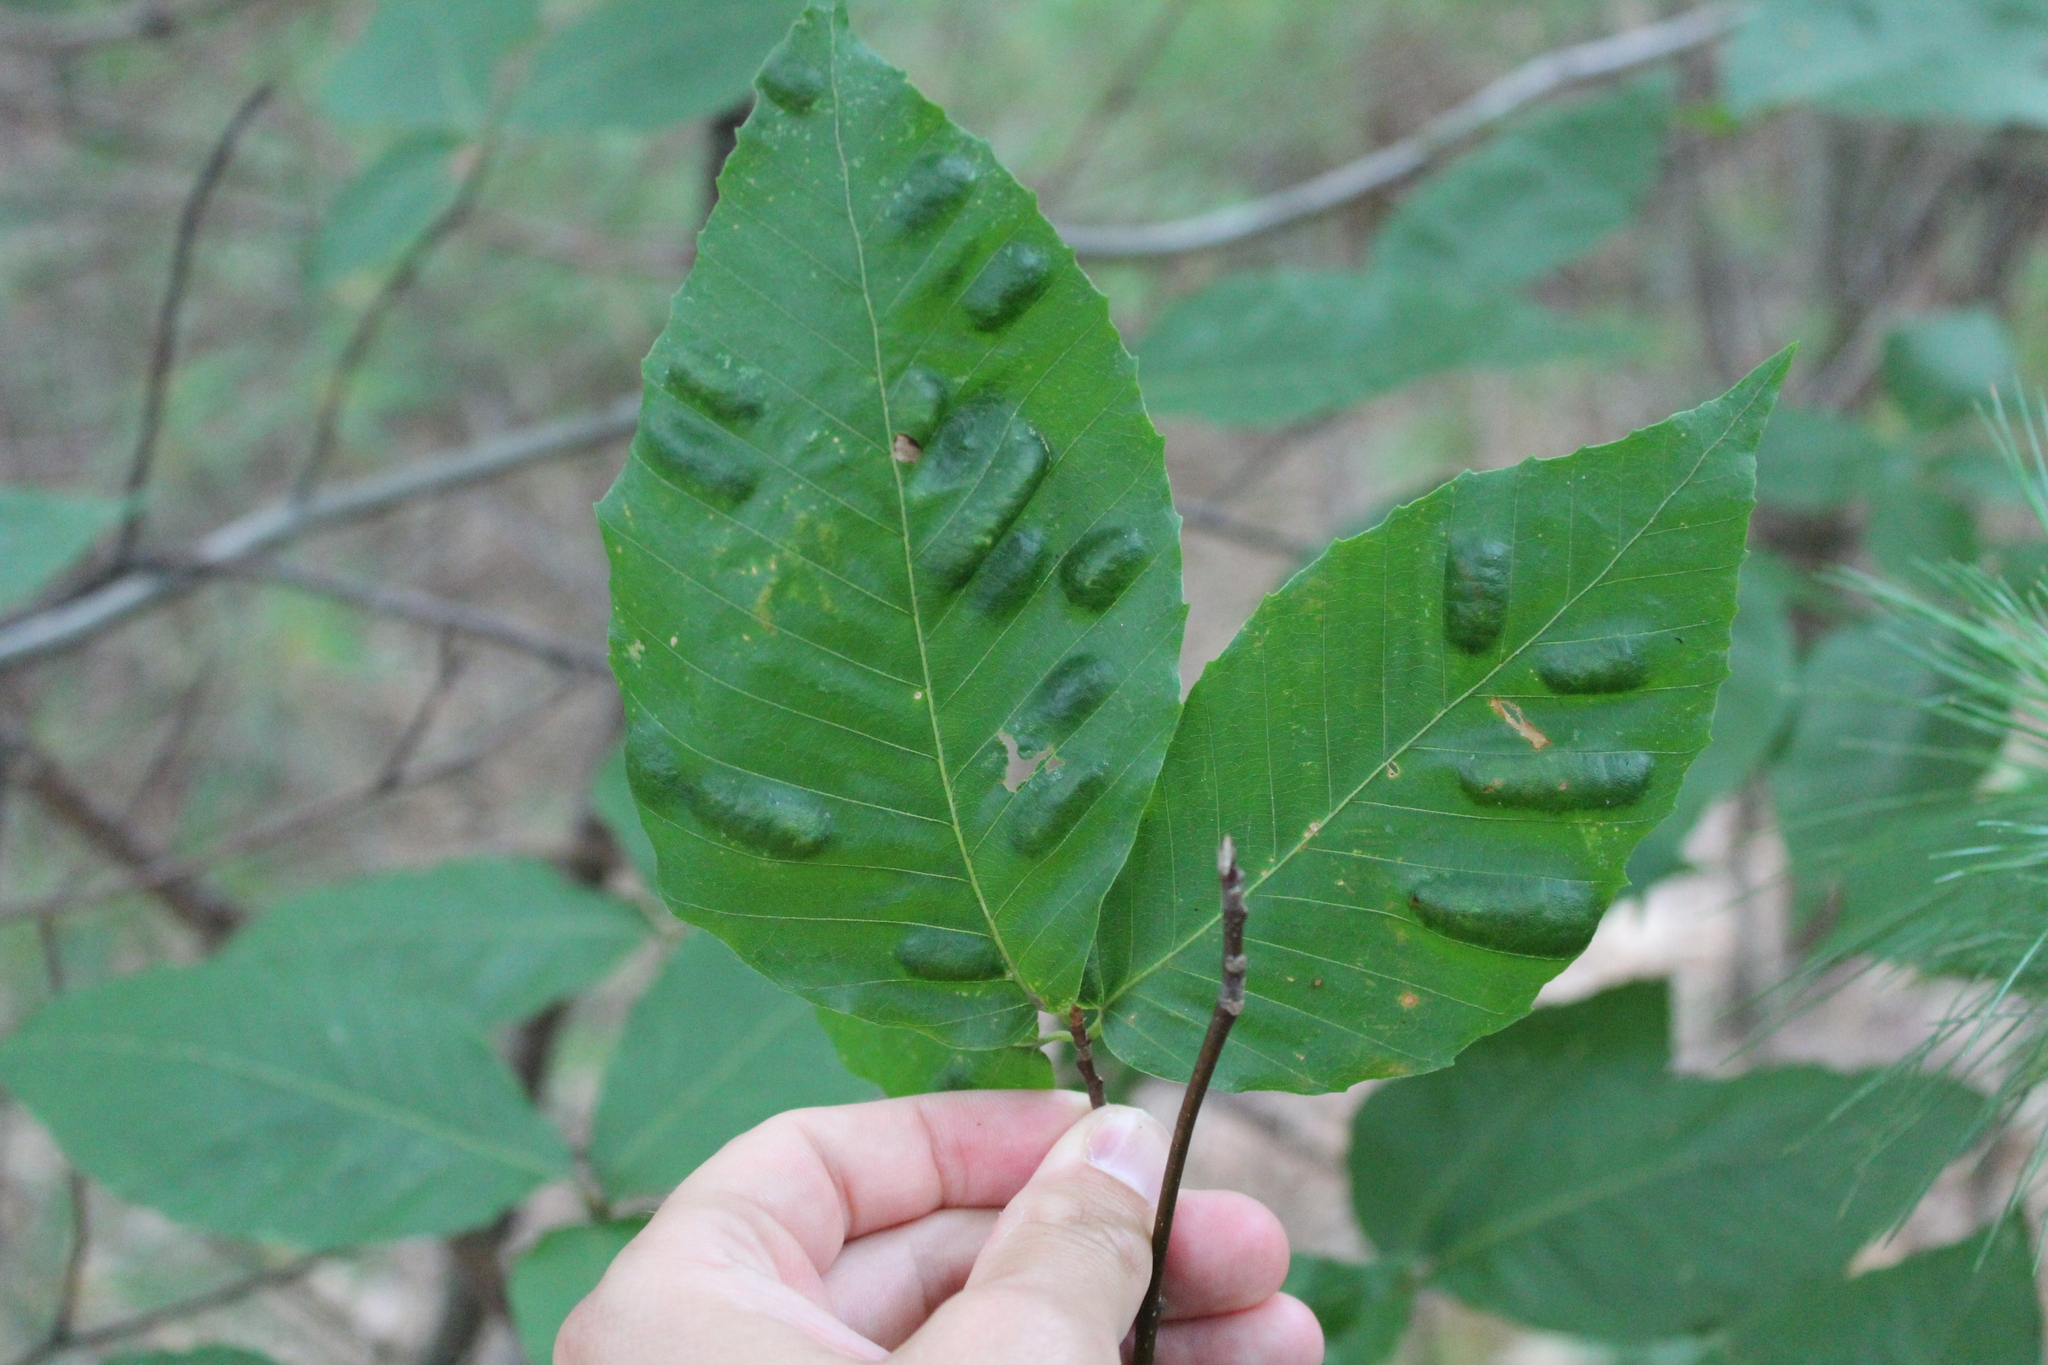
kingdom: Animalia
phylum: Nematoda
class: Chromadorea
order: Rhabditida
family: Anguinidae
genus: Litylenchus
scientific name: Litylenchus crenatae
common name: Beech leaf disease
